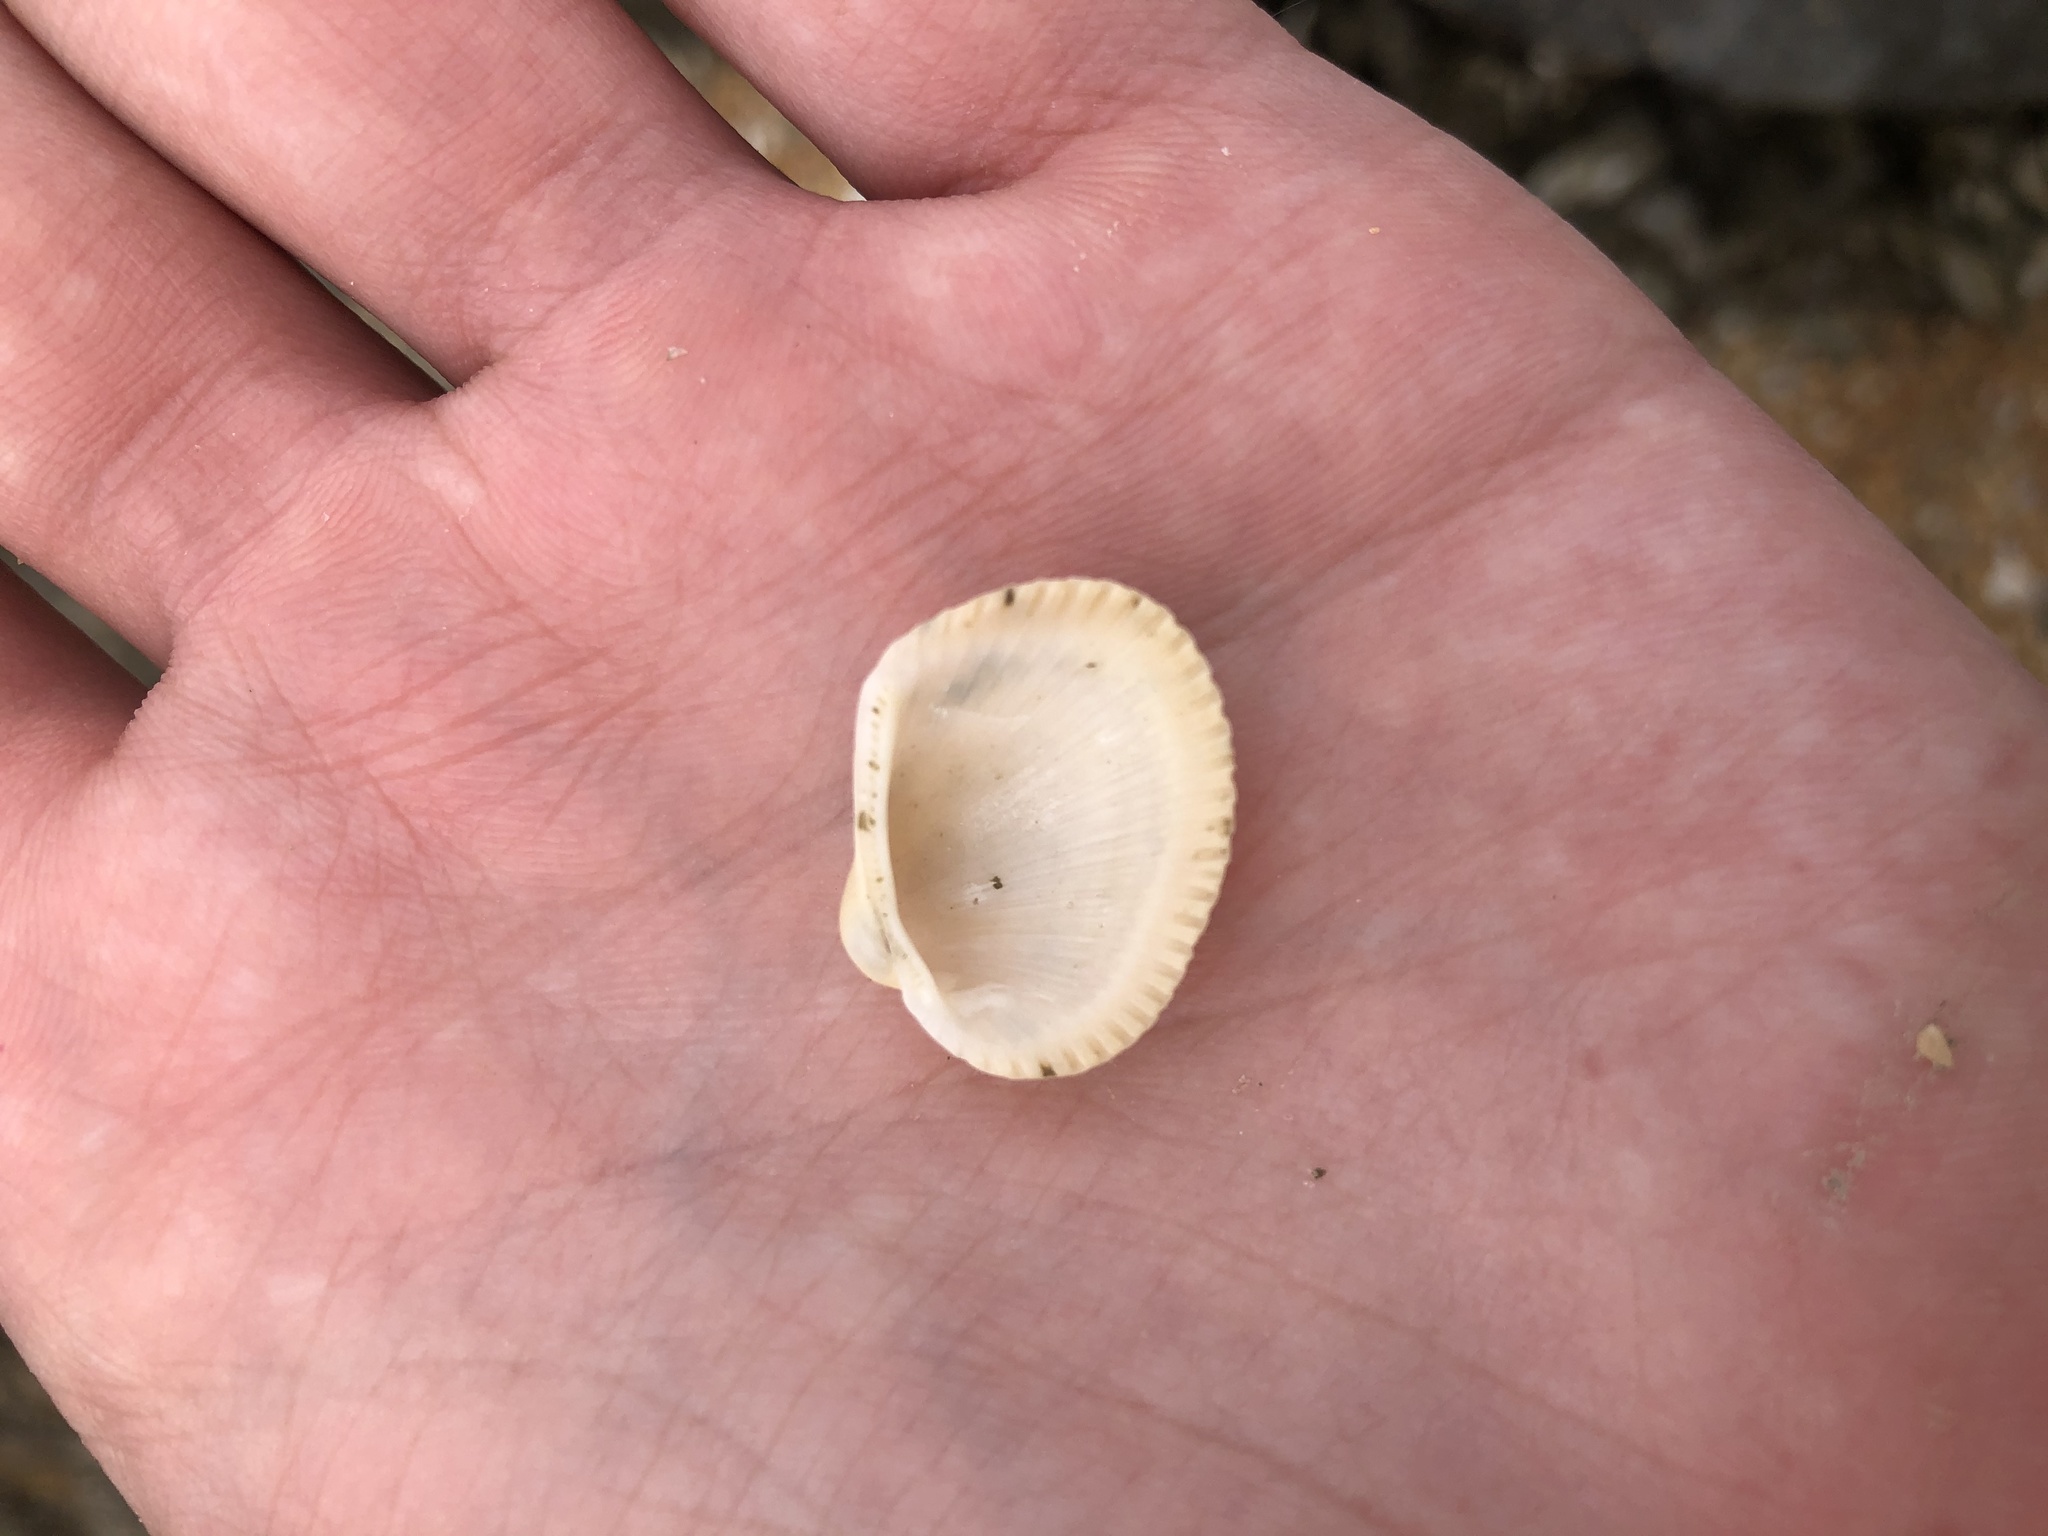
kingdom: Animalia
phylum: Mollusca
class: Bivalvia
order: Arcida
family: Arcidae
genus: Lunarca
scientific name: Lunarca ovalis
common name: Blood ark
